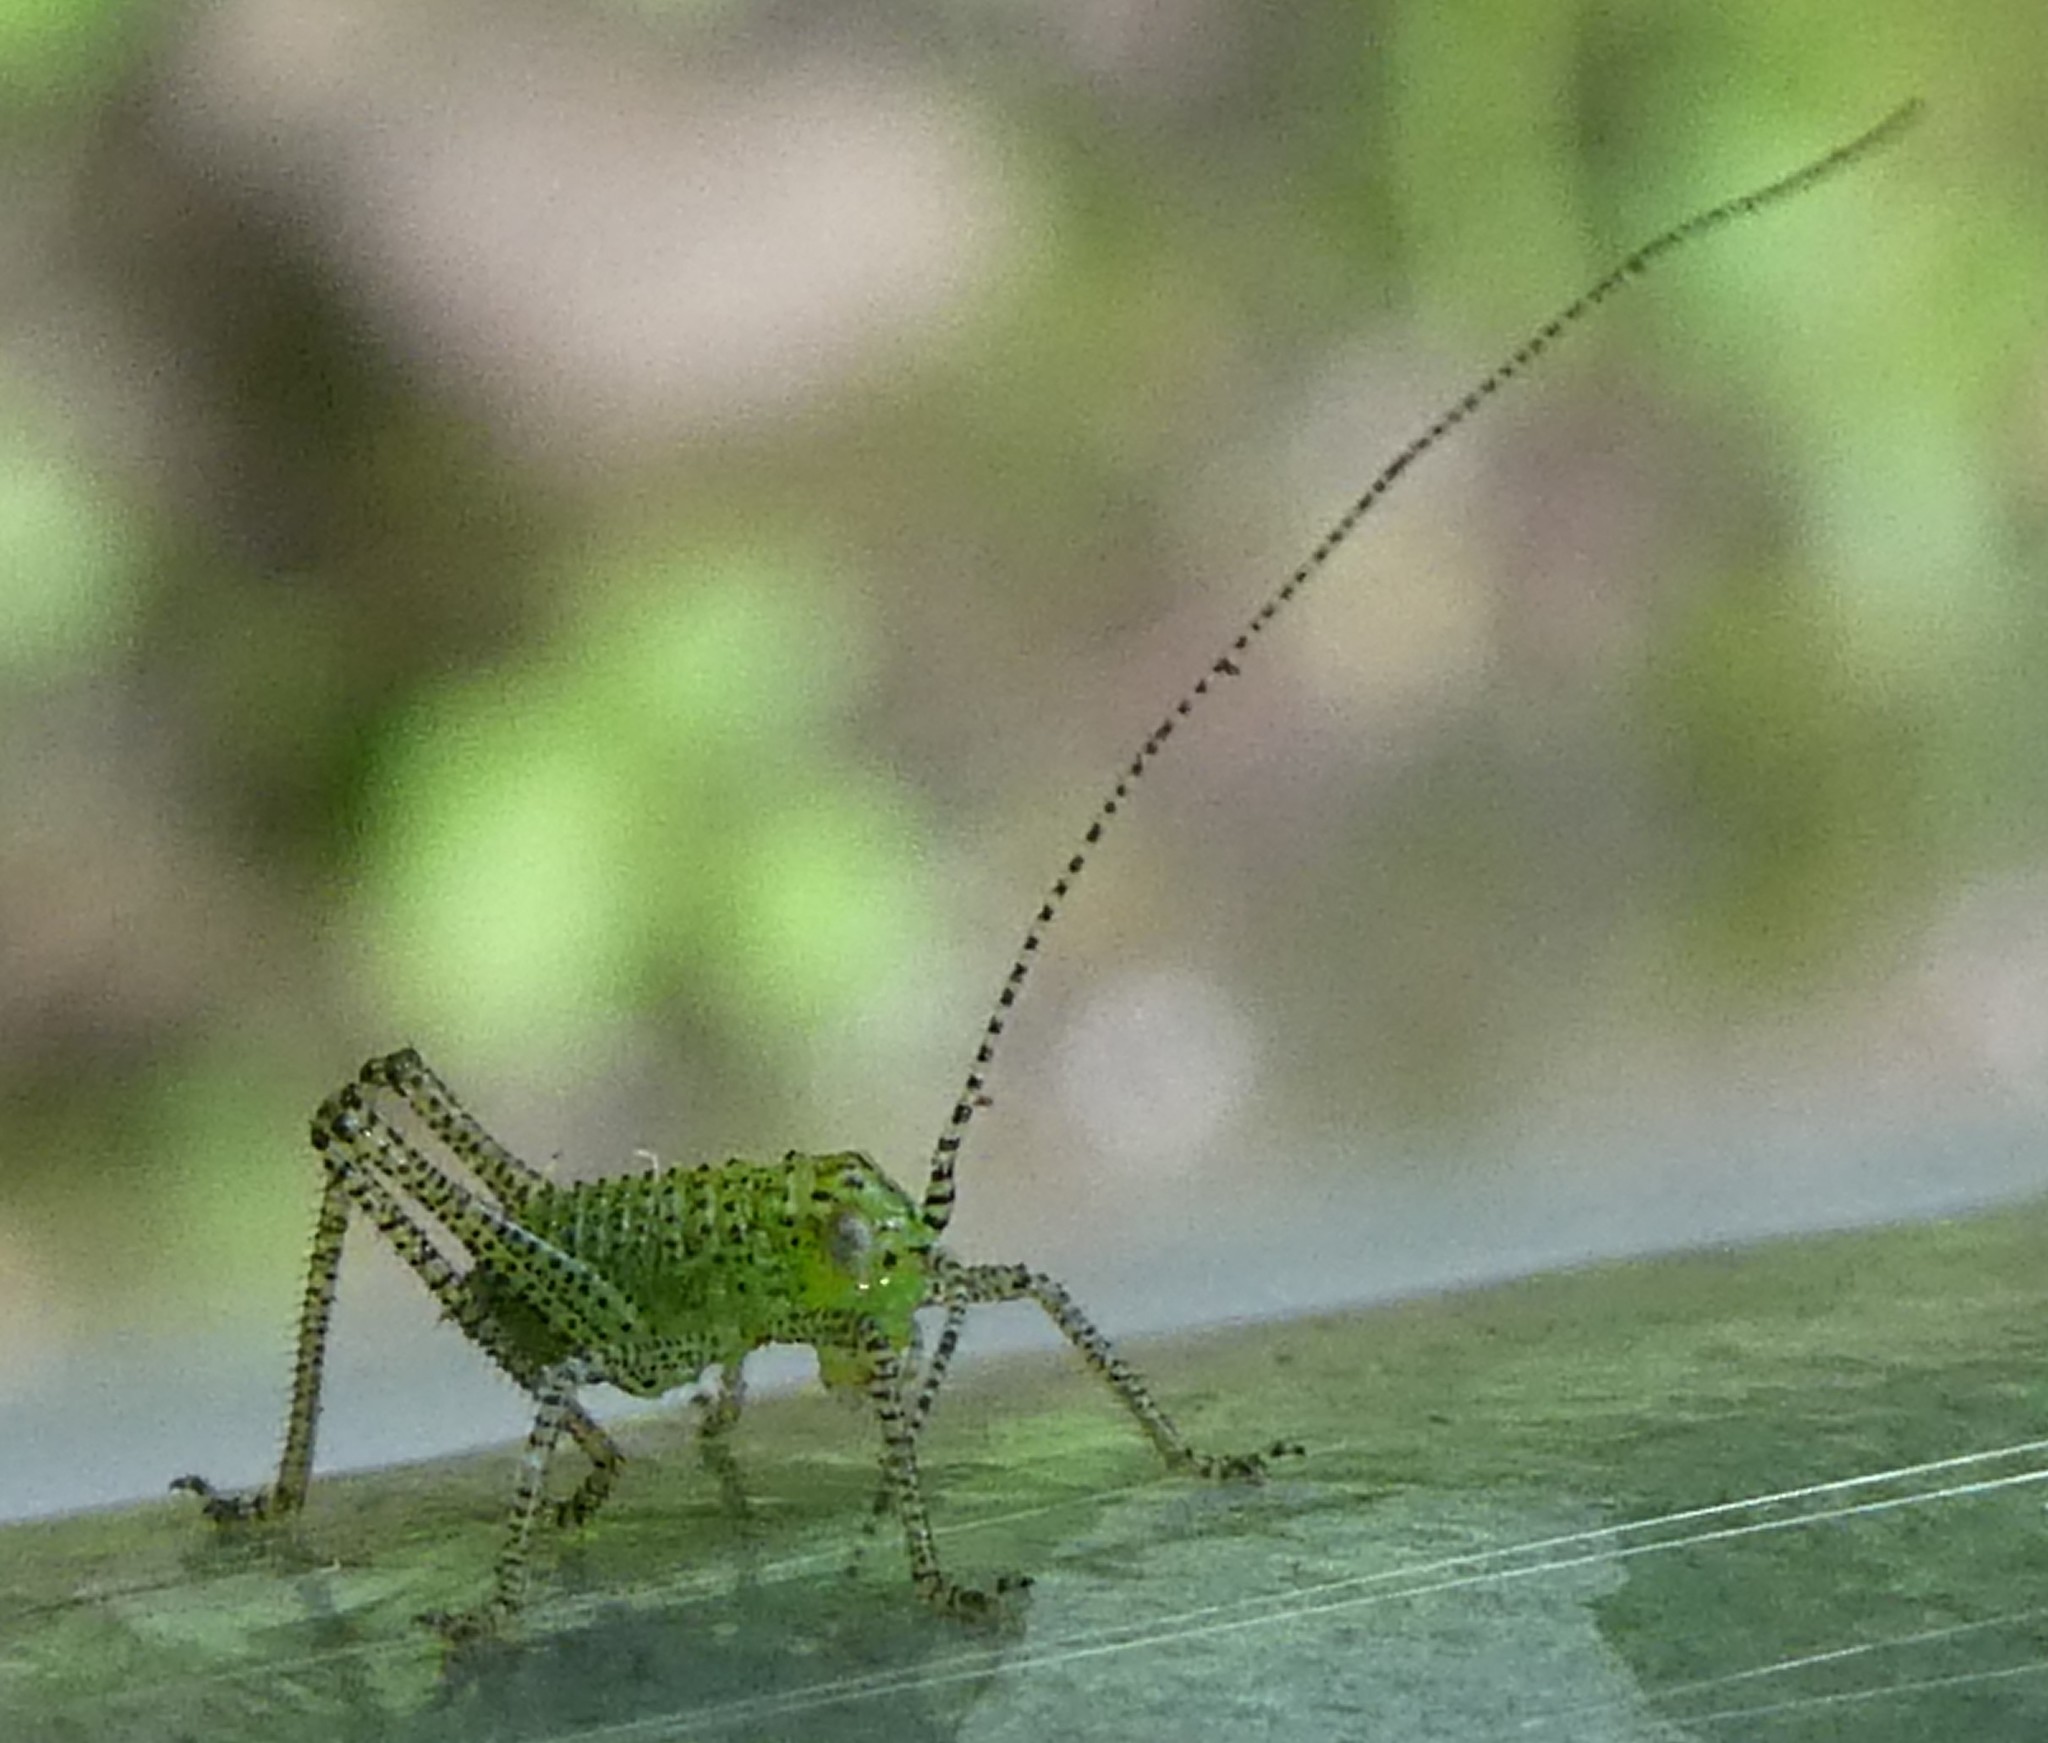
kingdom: Animalia
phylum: Arthropoda
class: Insecta
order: Orthoptera
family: Tettigoniidae
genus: Leptophyes
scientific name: Leptophyes punctatissima
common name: Speckled bush-cricket
